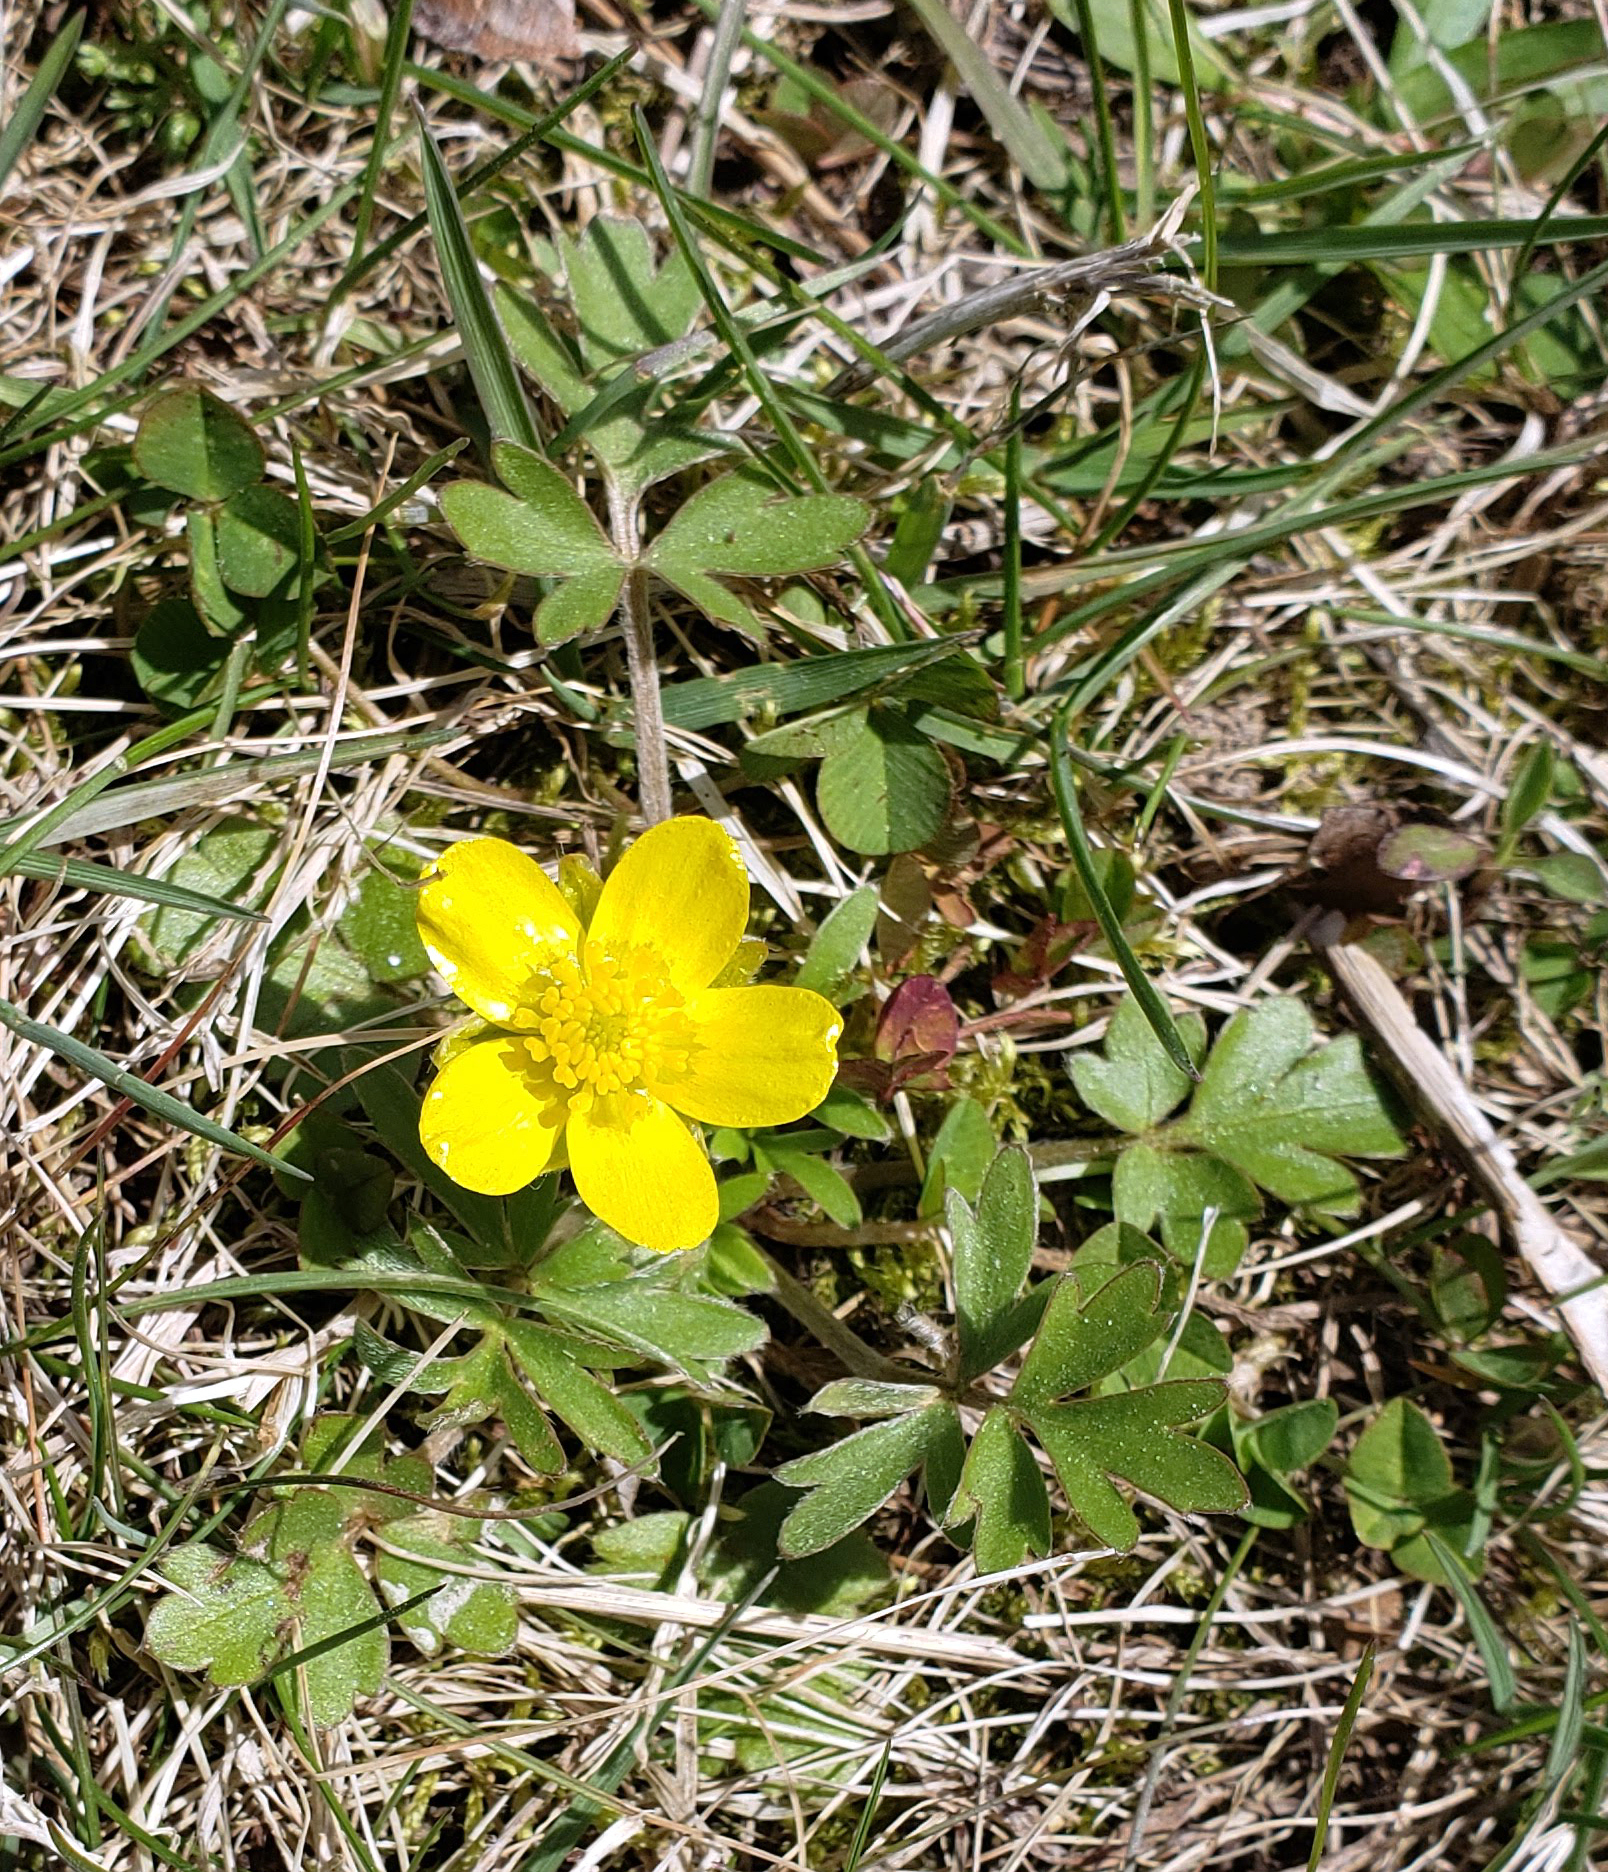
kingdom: Plantae
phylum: Tracheophyta
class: Magnoliopsida
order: Ranunculales
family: Ranunculaceae
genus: Ranunculus
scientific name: Ranunculus fascicularis
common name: Early buttercup
